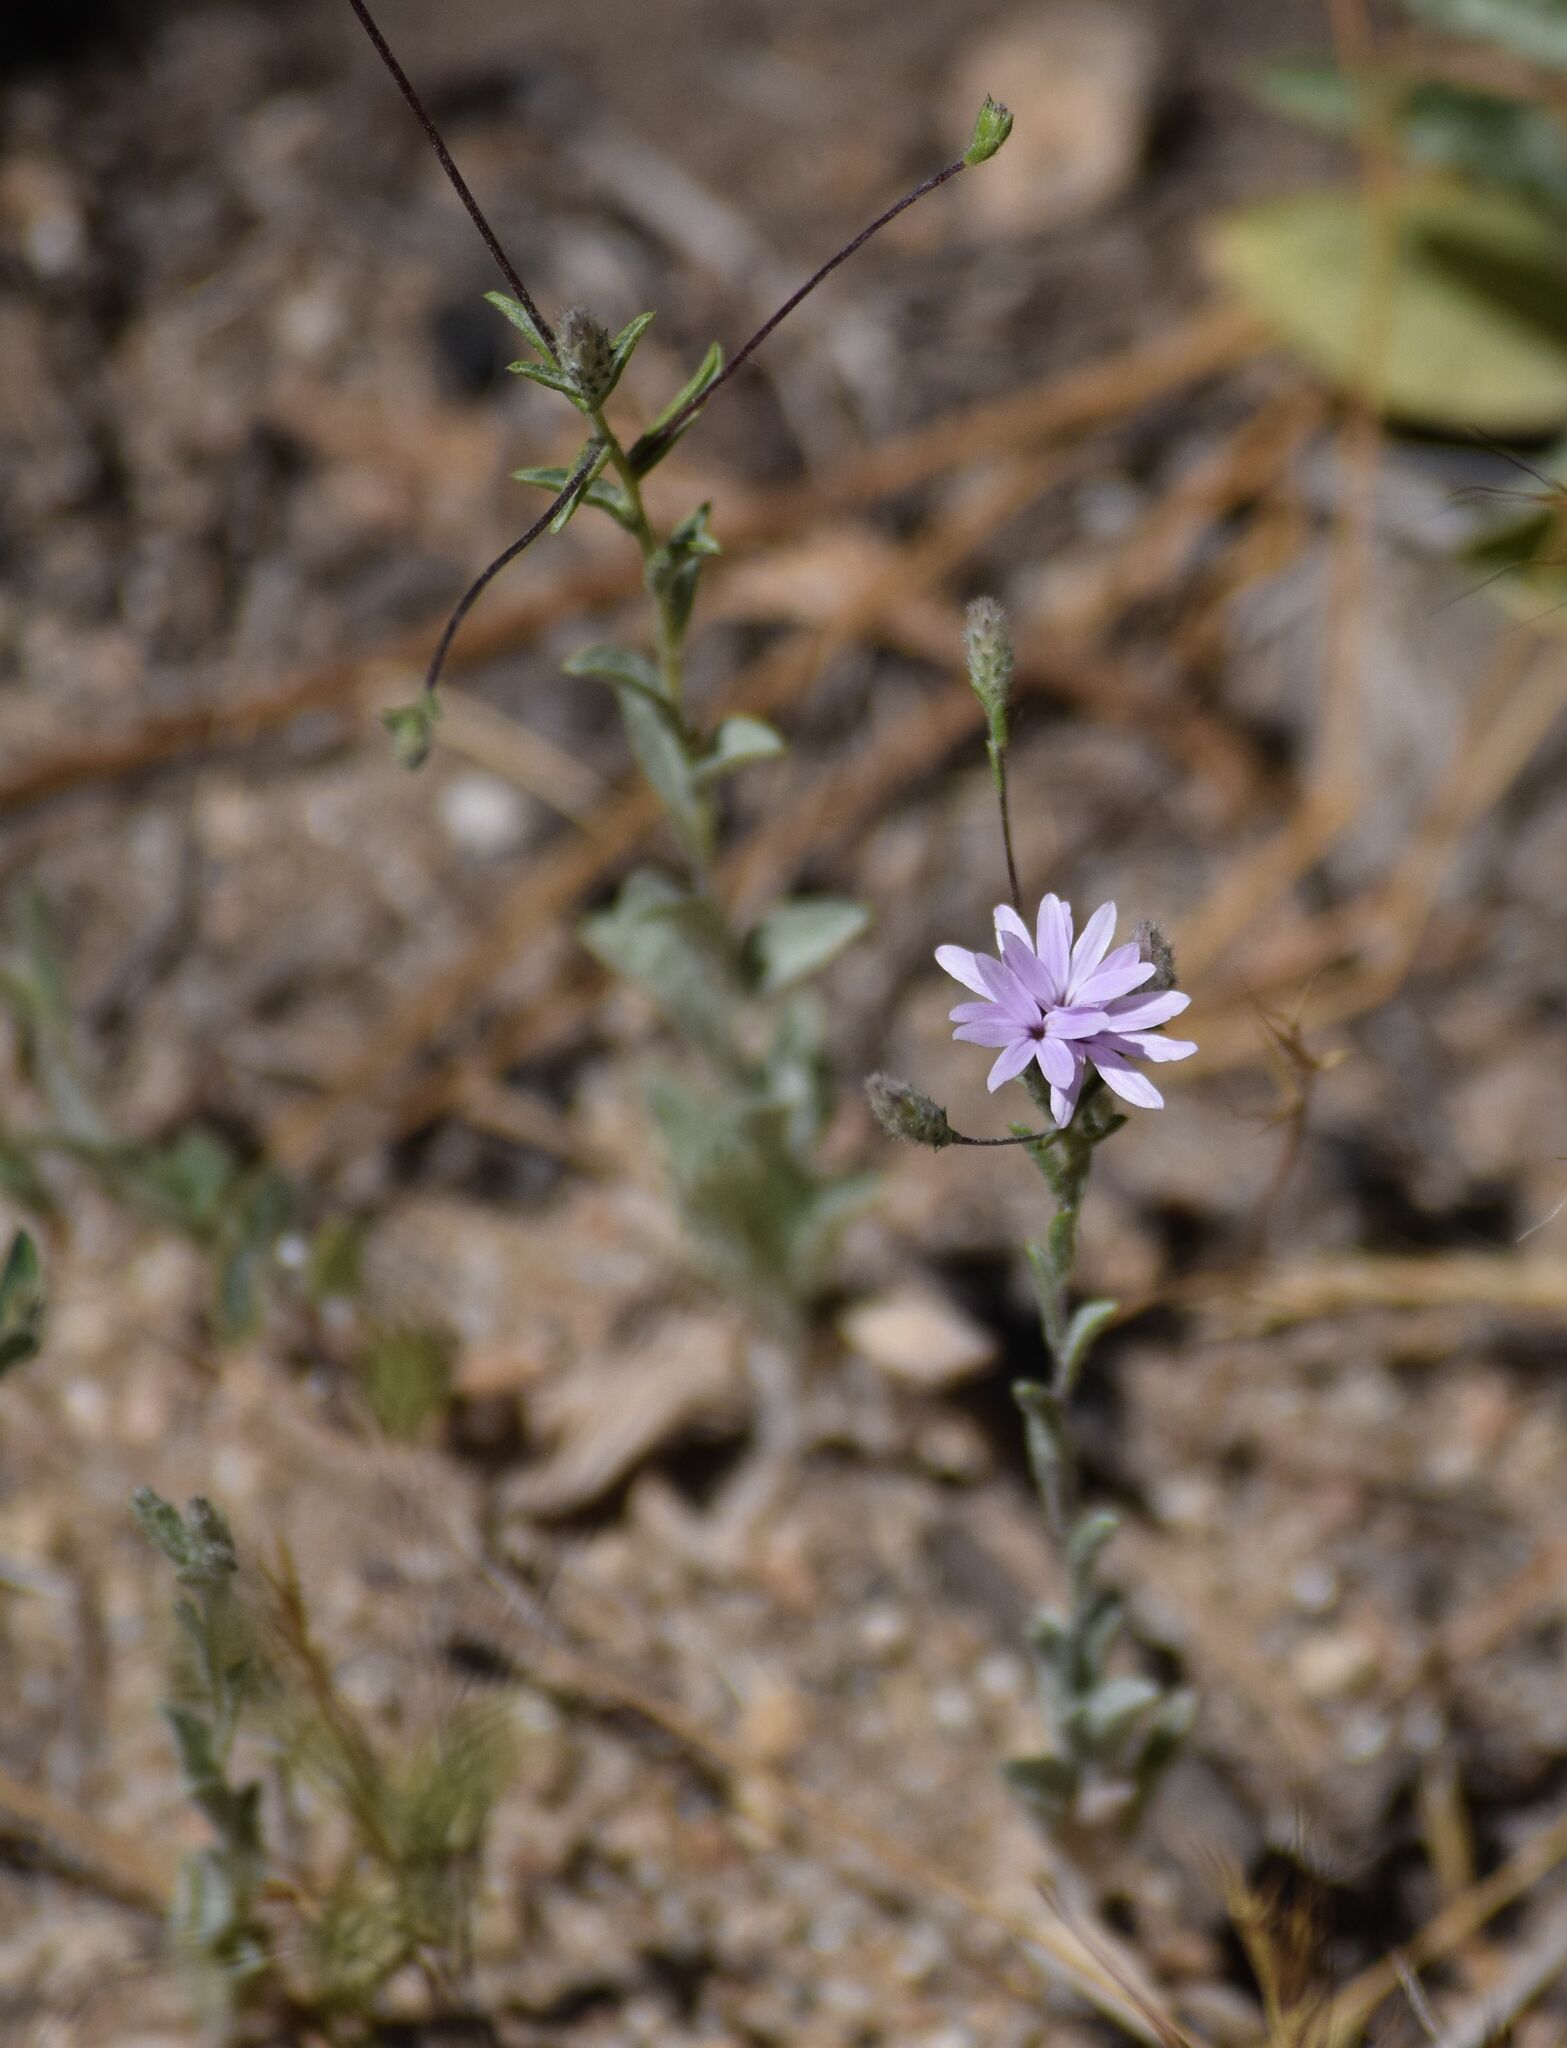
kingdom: Plantae
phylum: Tracheophyta
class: Magnoliopsida
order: Asterales
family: Asteraceae
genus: Lessingia
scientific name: Lessingia leptoclada
